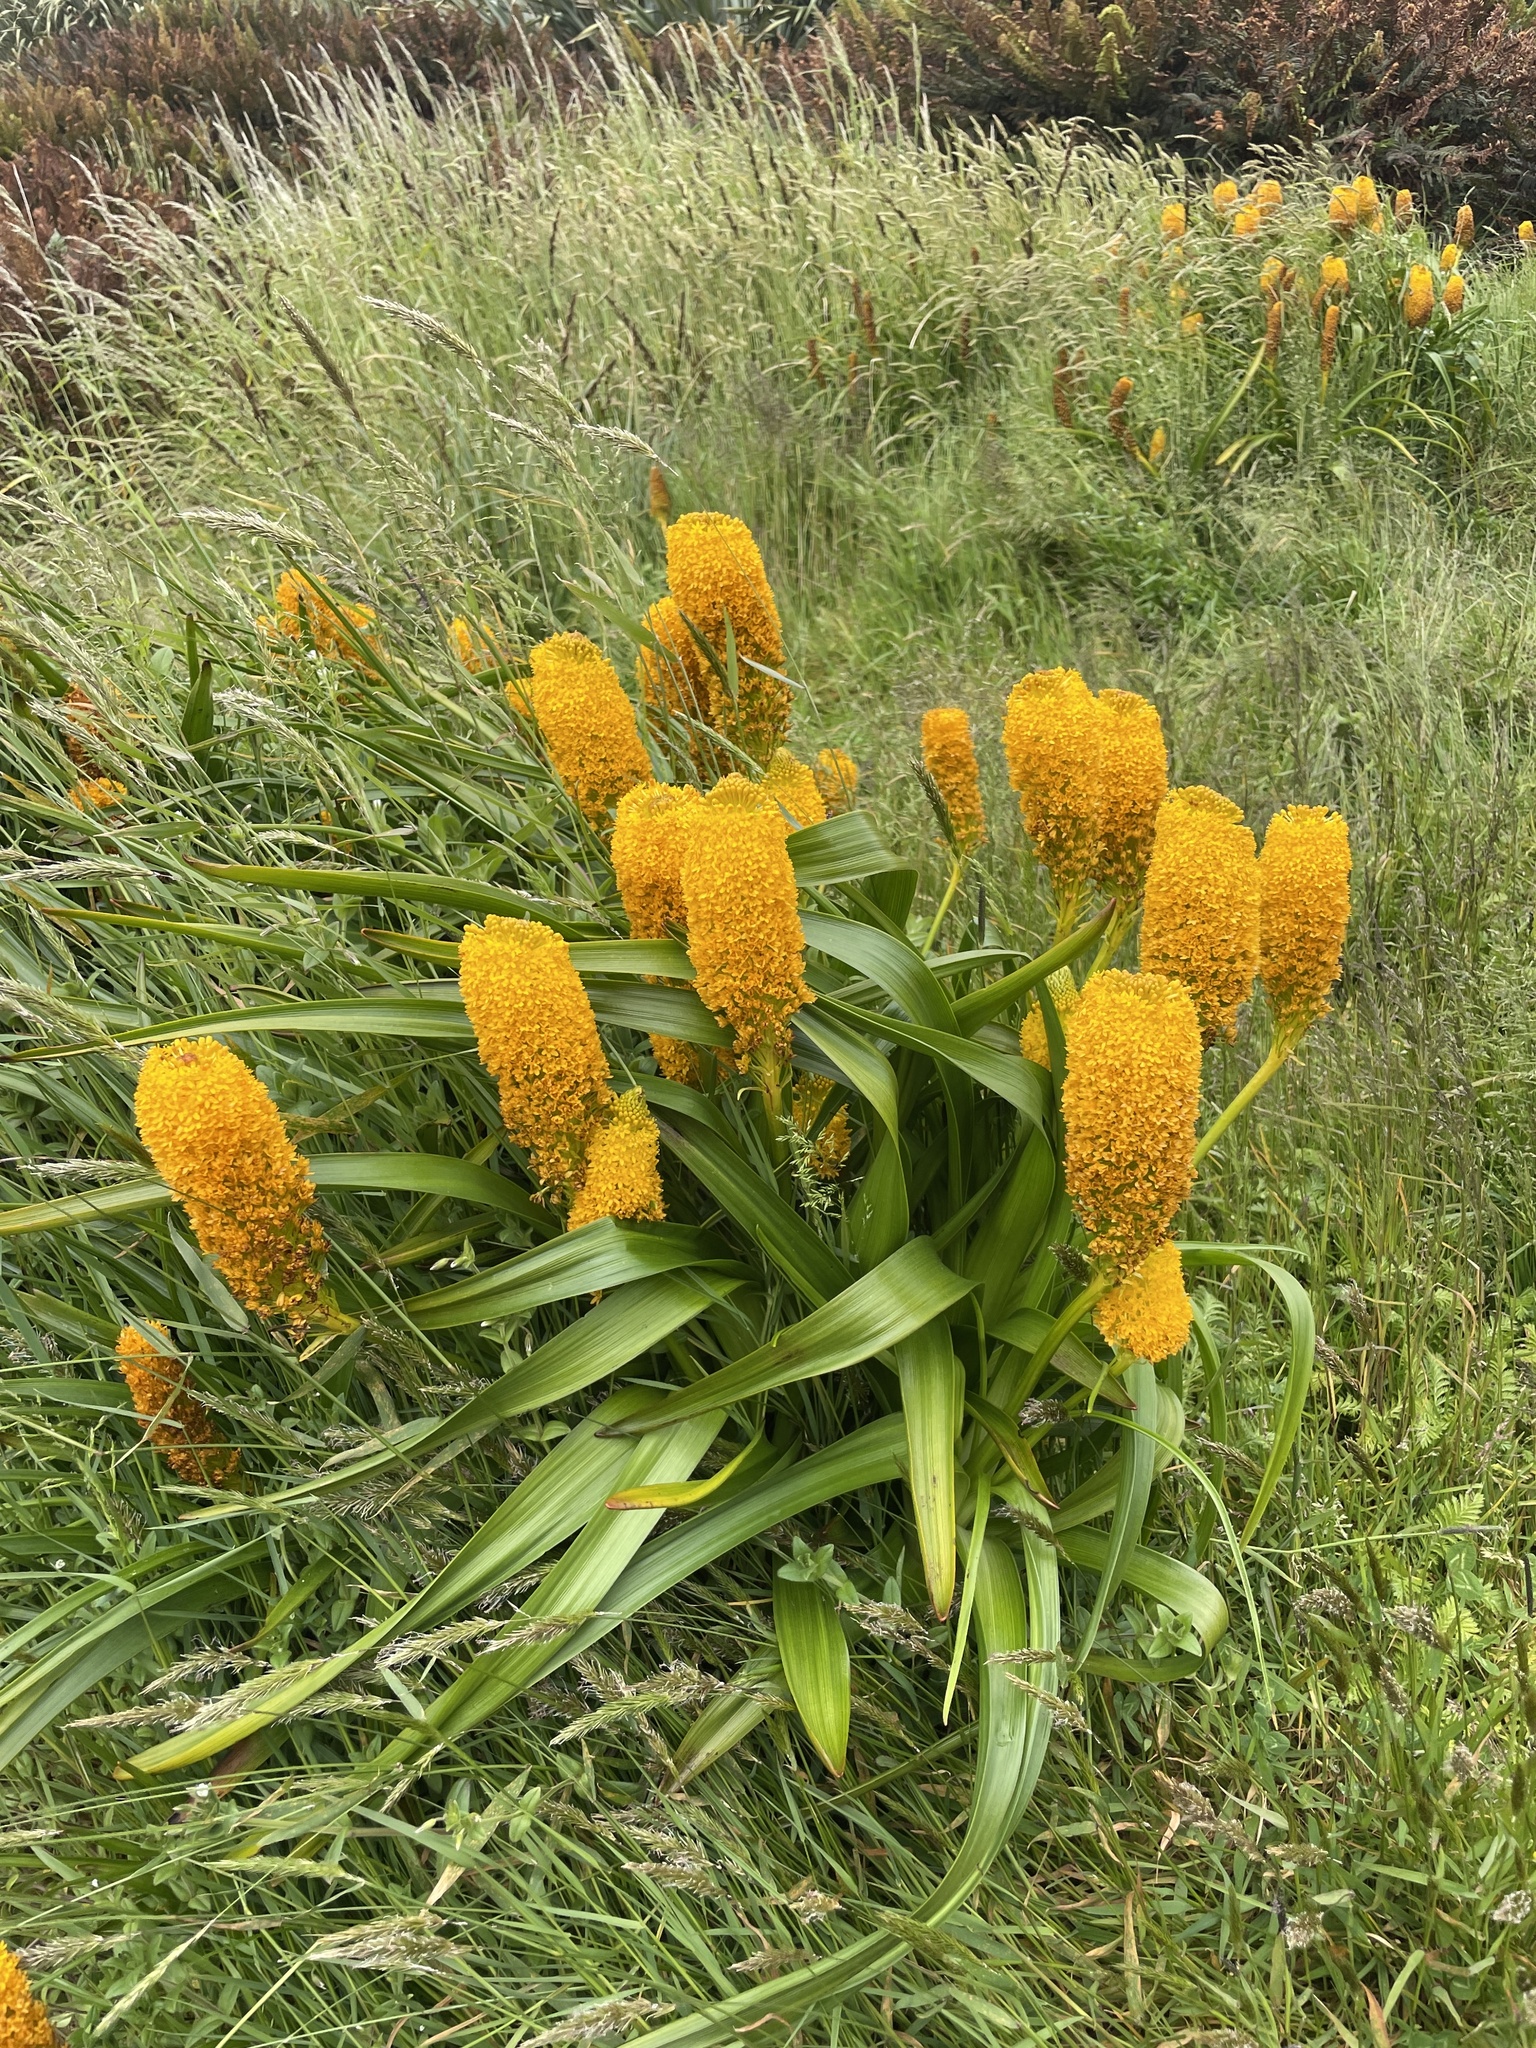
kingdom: Plantae
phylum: Tracheophyta
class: Liliopsida
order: Asparagales
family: Asphodelaceae
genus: Bulbinella
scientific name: Bulbinella rossii
